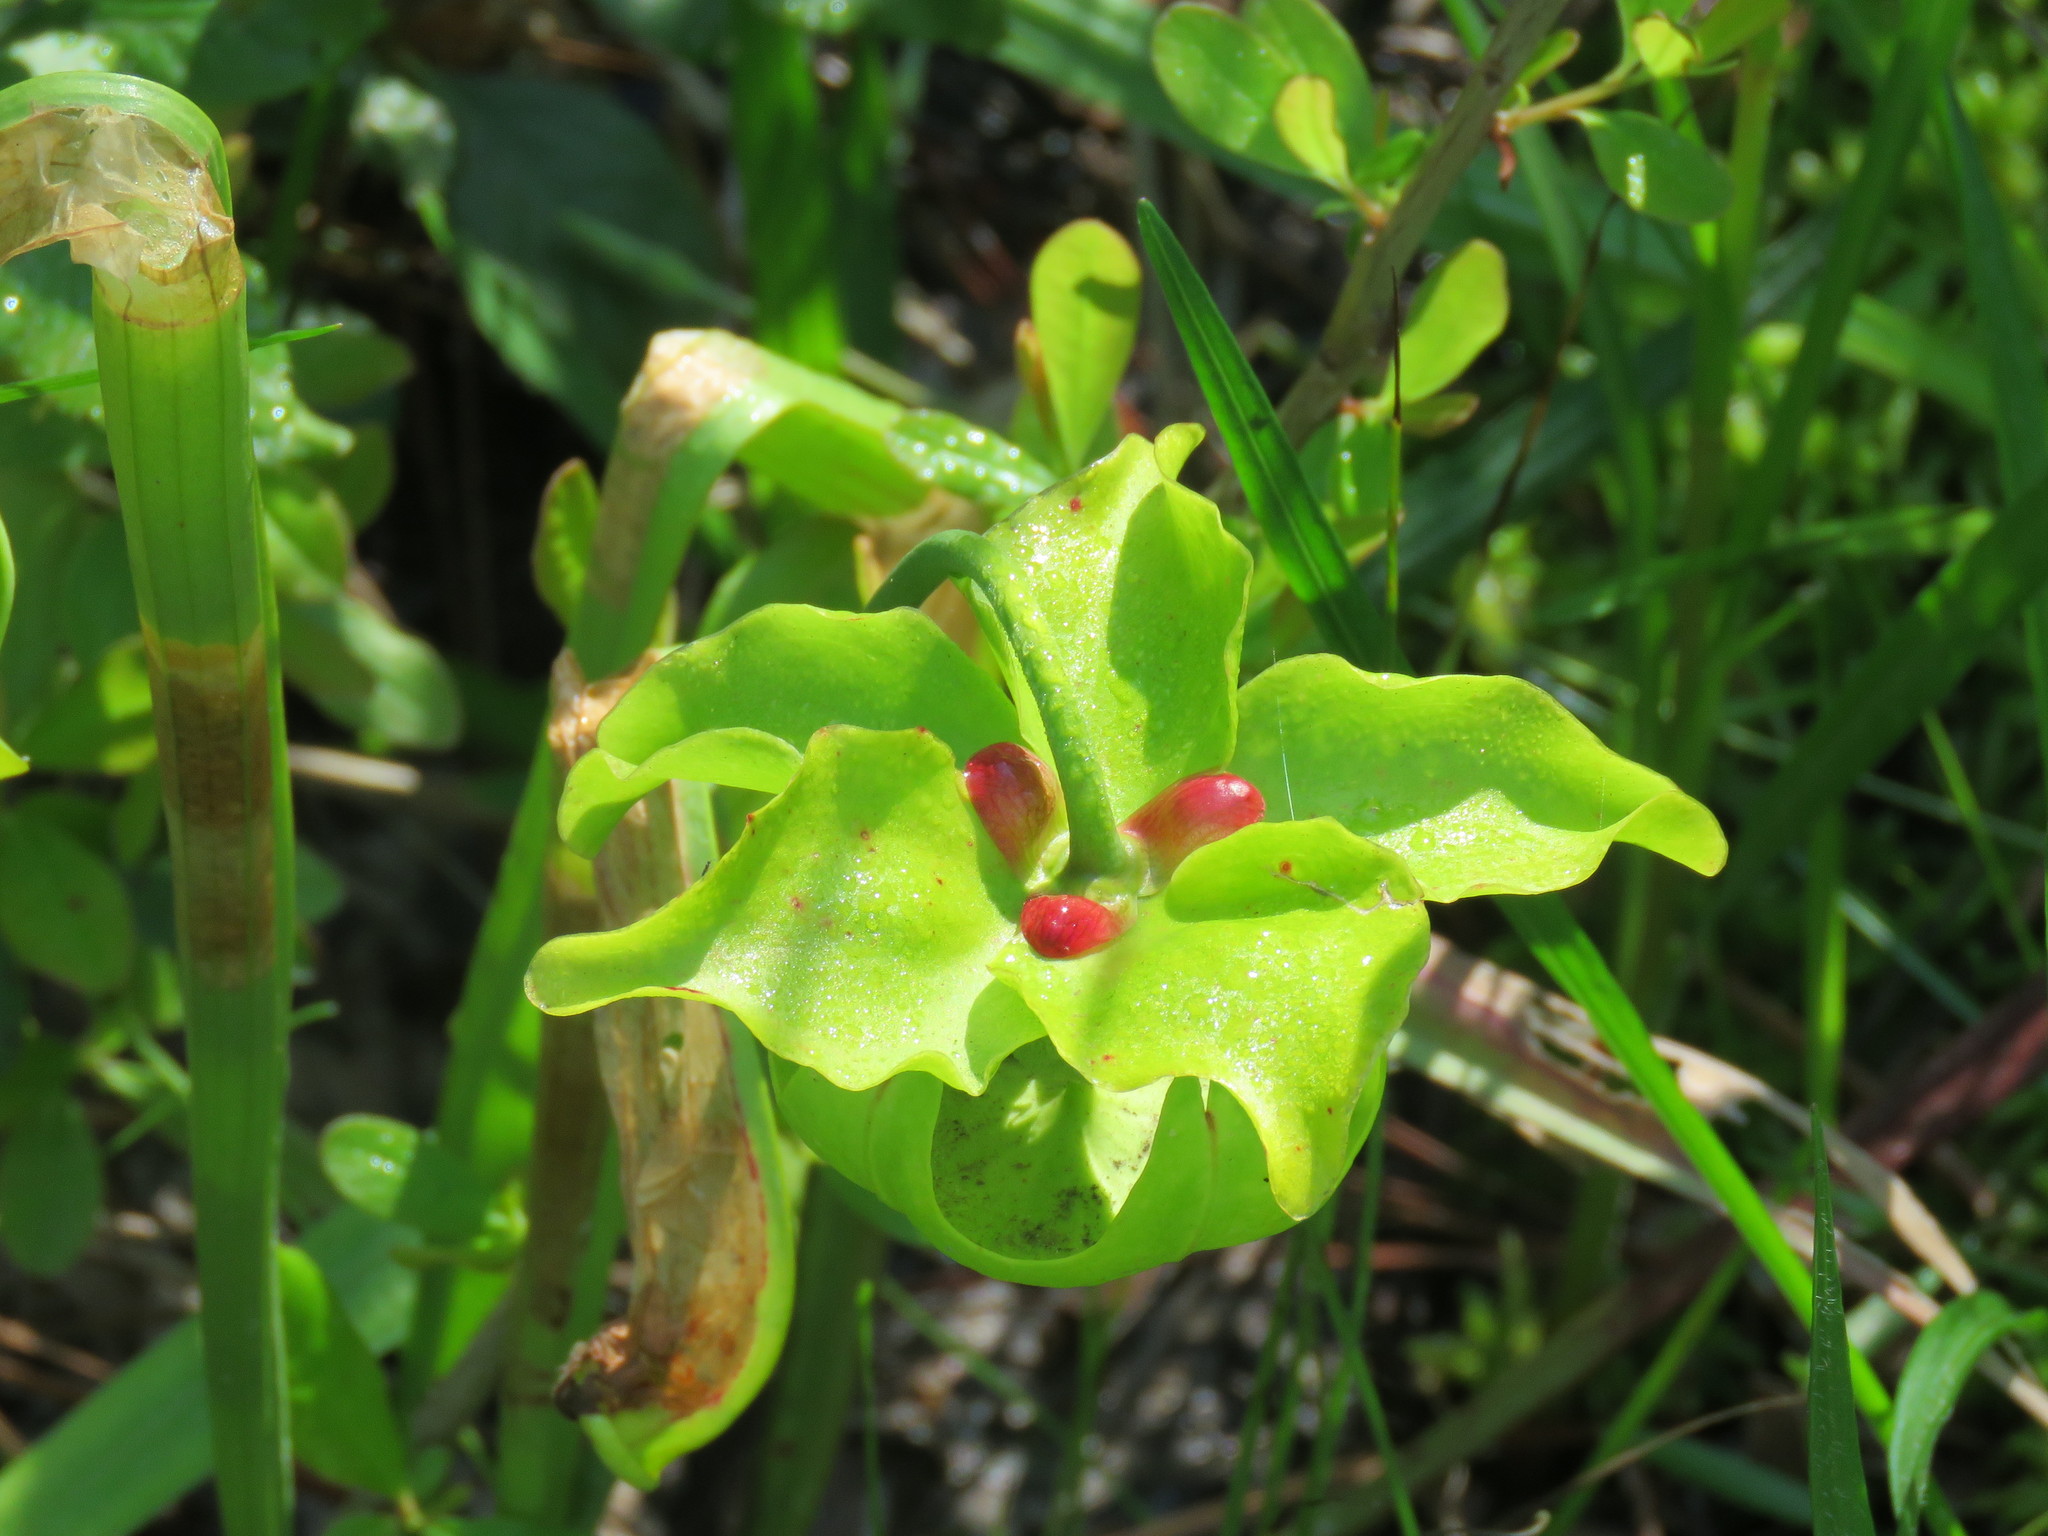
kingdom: Plantae
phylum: Tracheophyta
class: Magnoliopsida
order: Ericales
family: Sarraceniaceae
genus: Sarracenia
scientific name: Sarracenia alata
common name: Yellow trumpets
